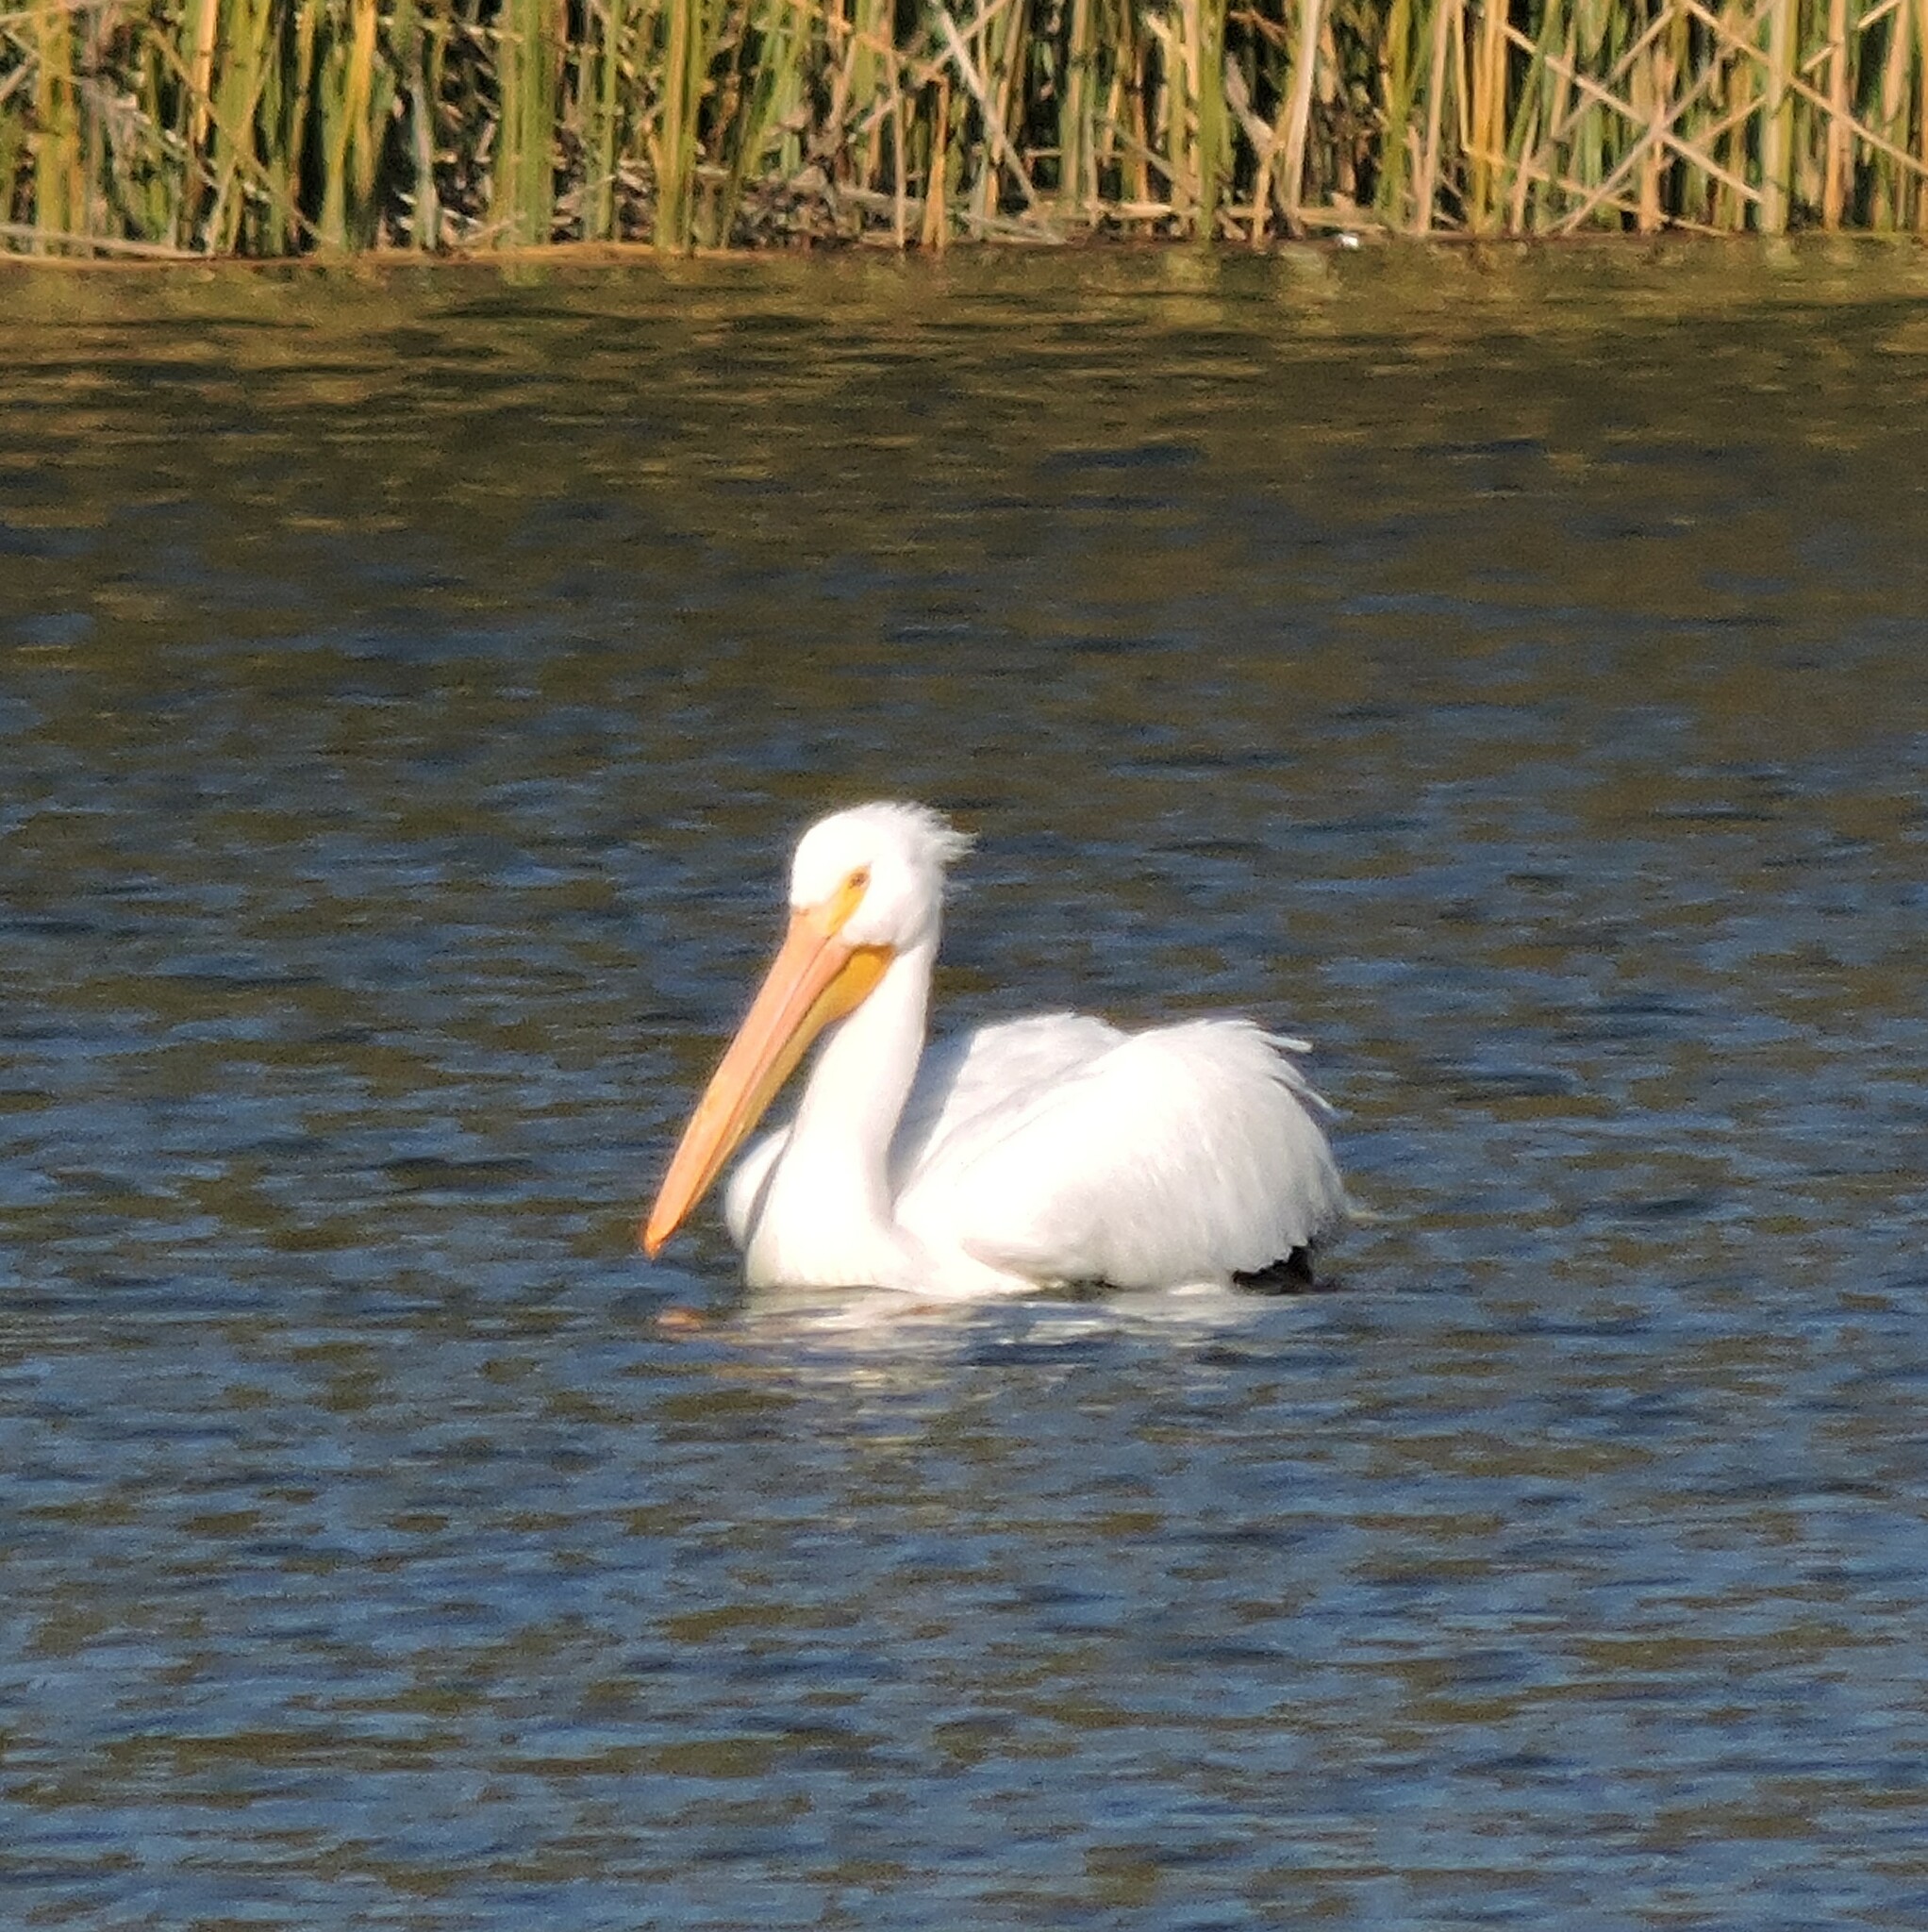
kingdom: Animalia
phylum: Chordata
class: Aves
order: Pelecaniformes
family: Pelecanidae
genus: Pelecanus
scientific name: Pelecanus erythrorhynchos
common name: American white pelican
